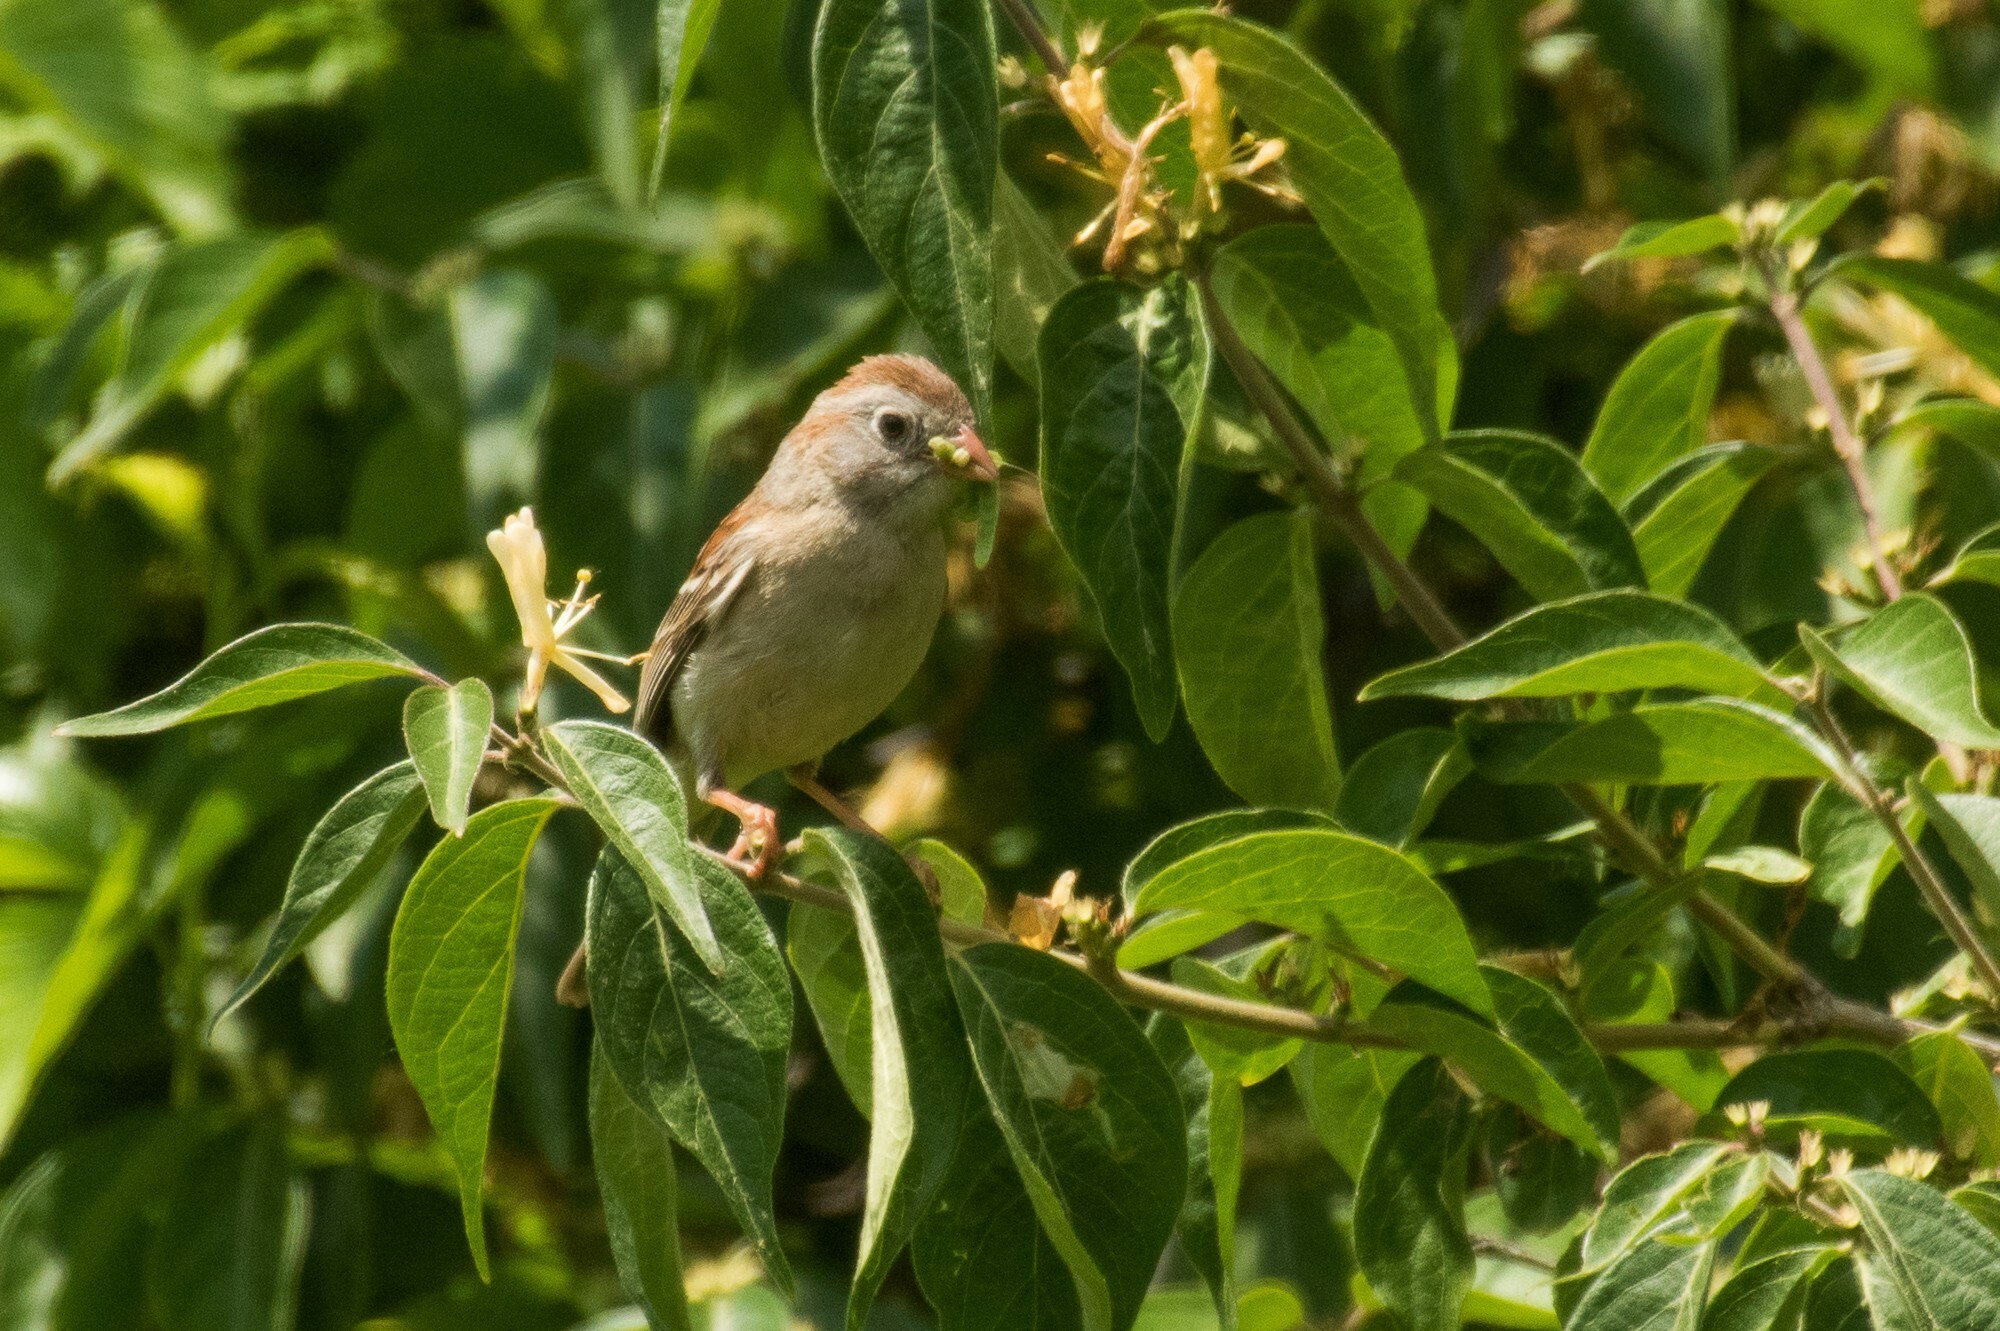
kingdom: Animalia
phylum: Chordata
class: Aves
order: Passeriformes
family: Passerellidae
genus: Spizella
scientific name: Spizella pusilla
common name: Field sparrow
